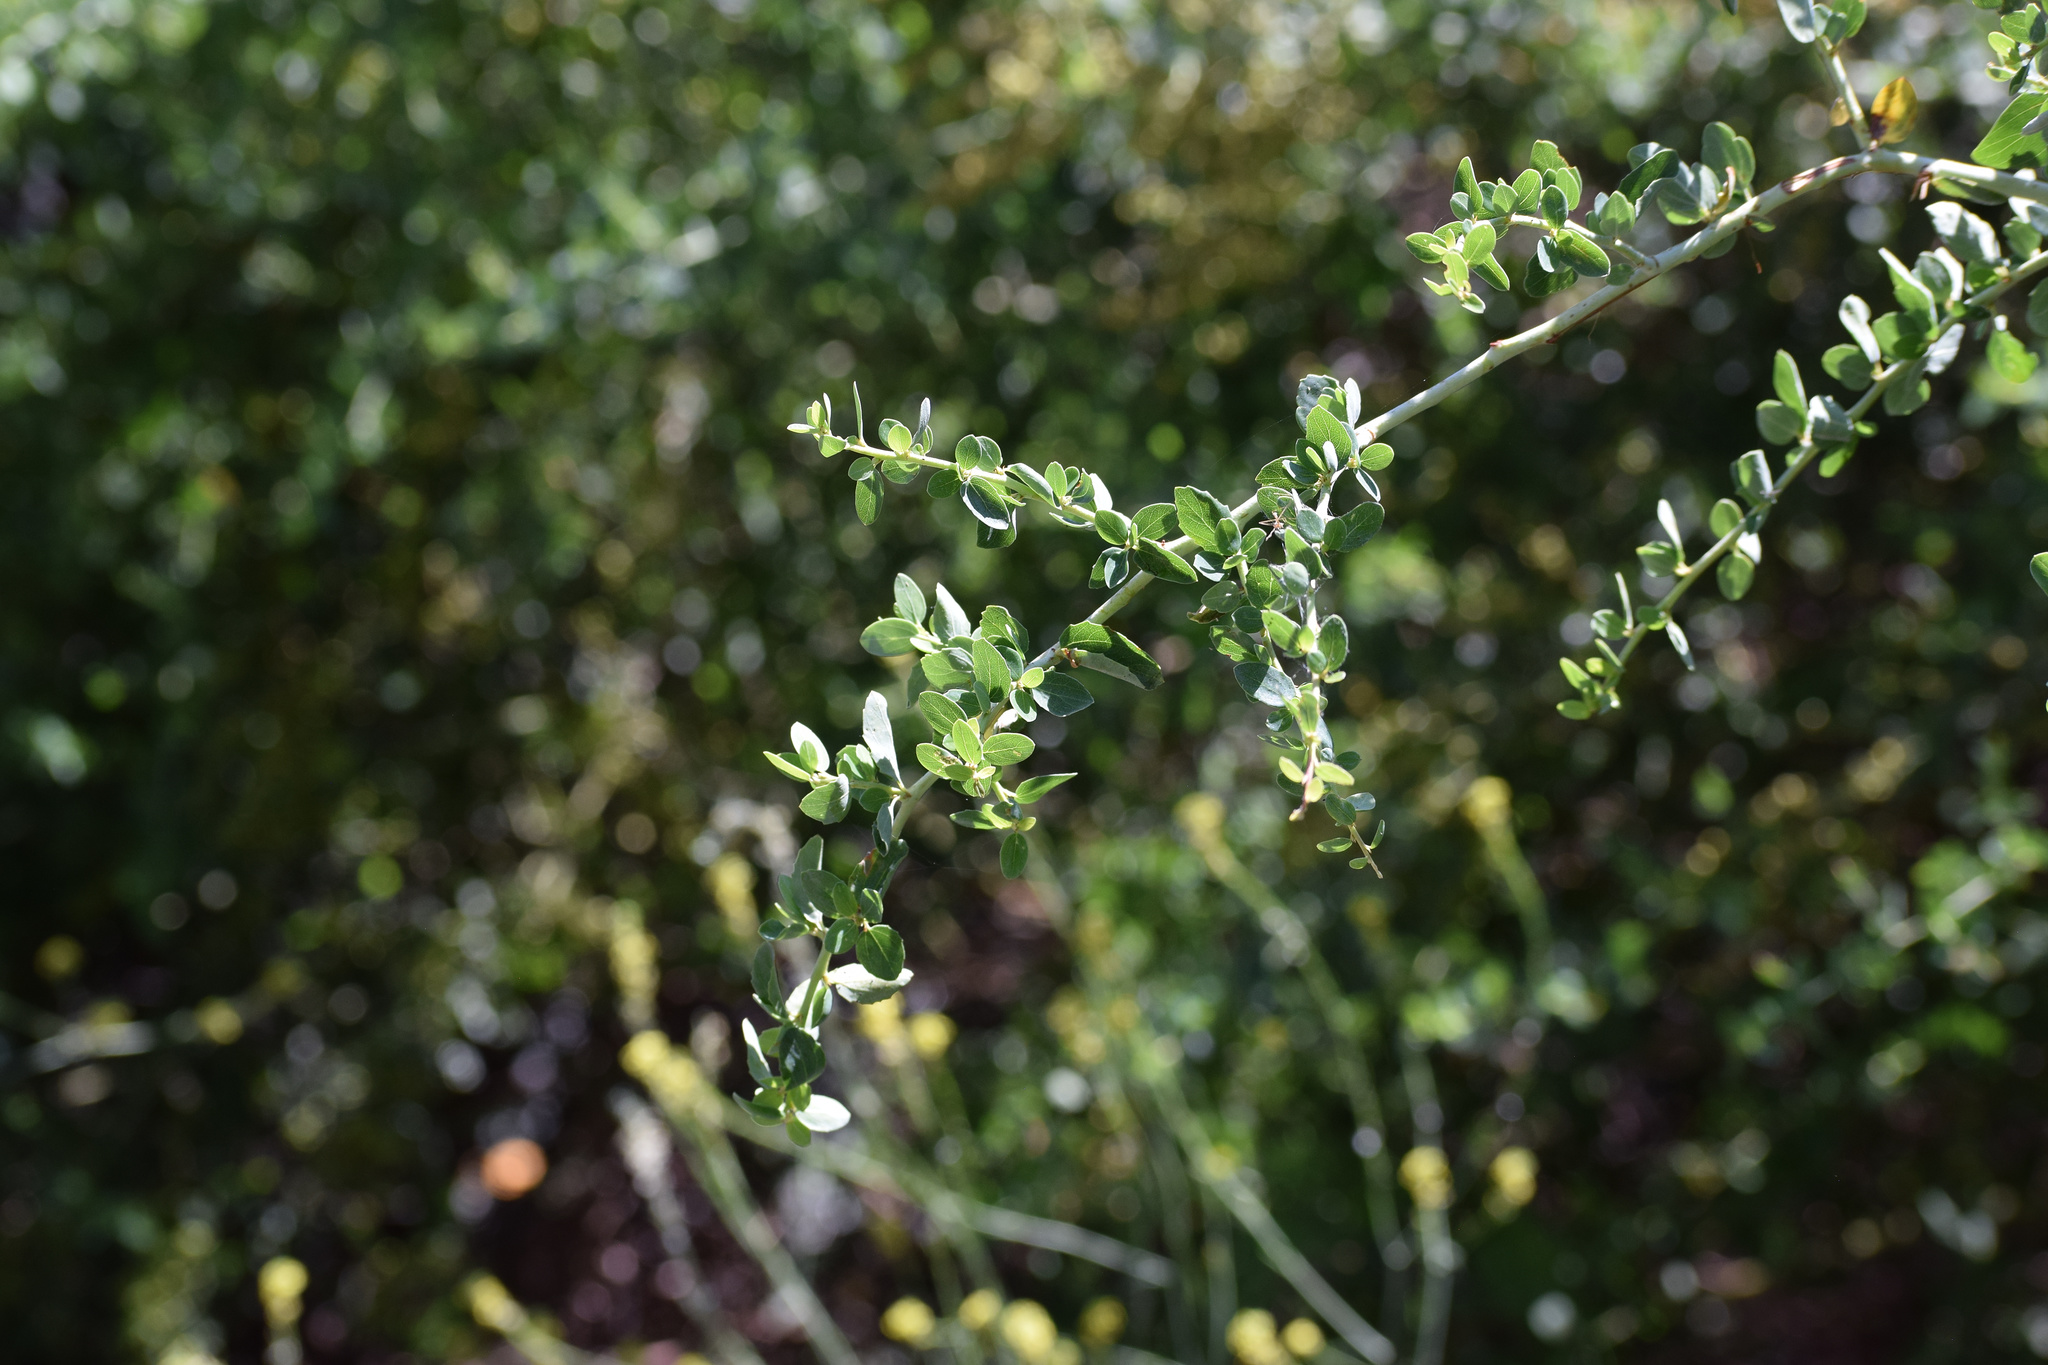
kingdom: Plantae
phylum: Tracheophyta
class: Magnoliopsida
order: Rosales
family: Rhamnaceae
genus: Ceanothus
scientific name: Ceanothus leucodermis
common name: Chaparral whitethorn
